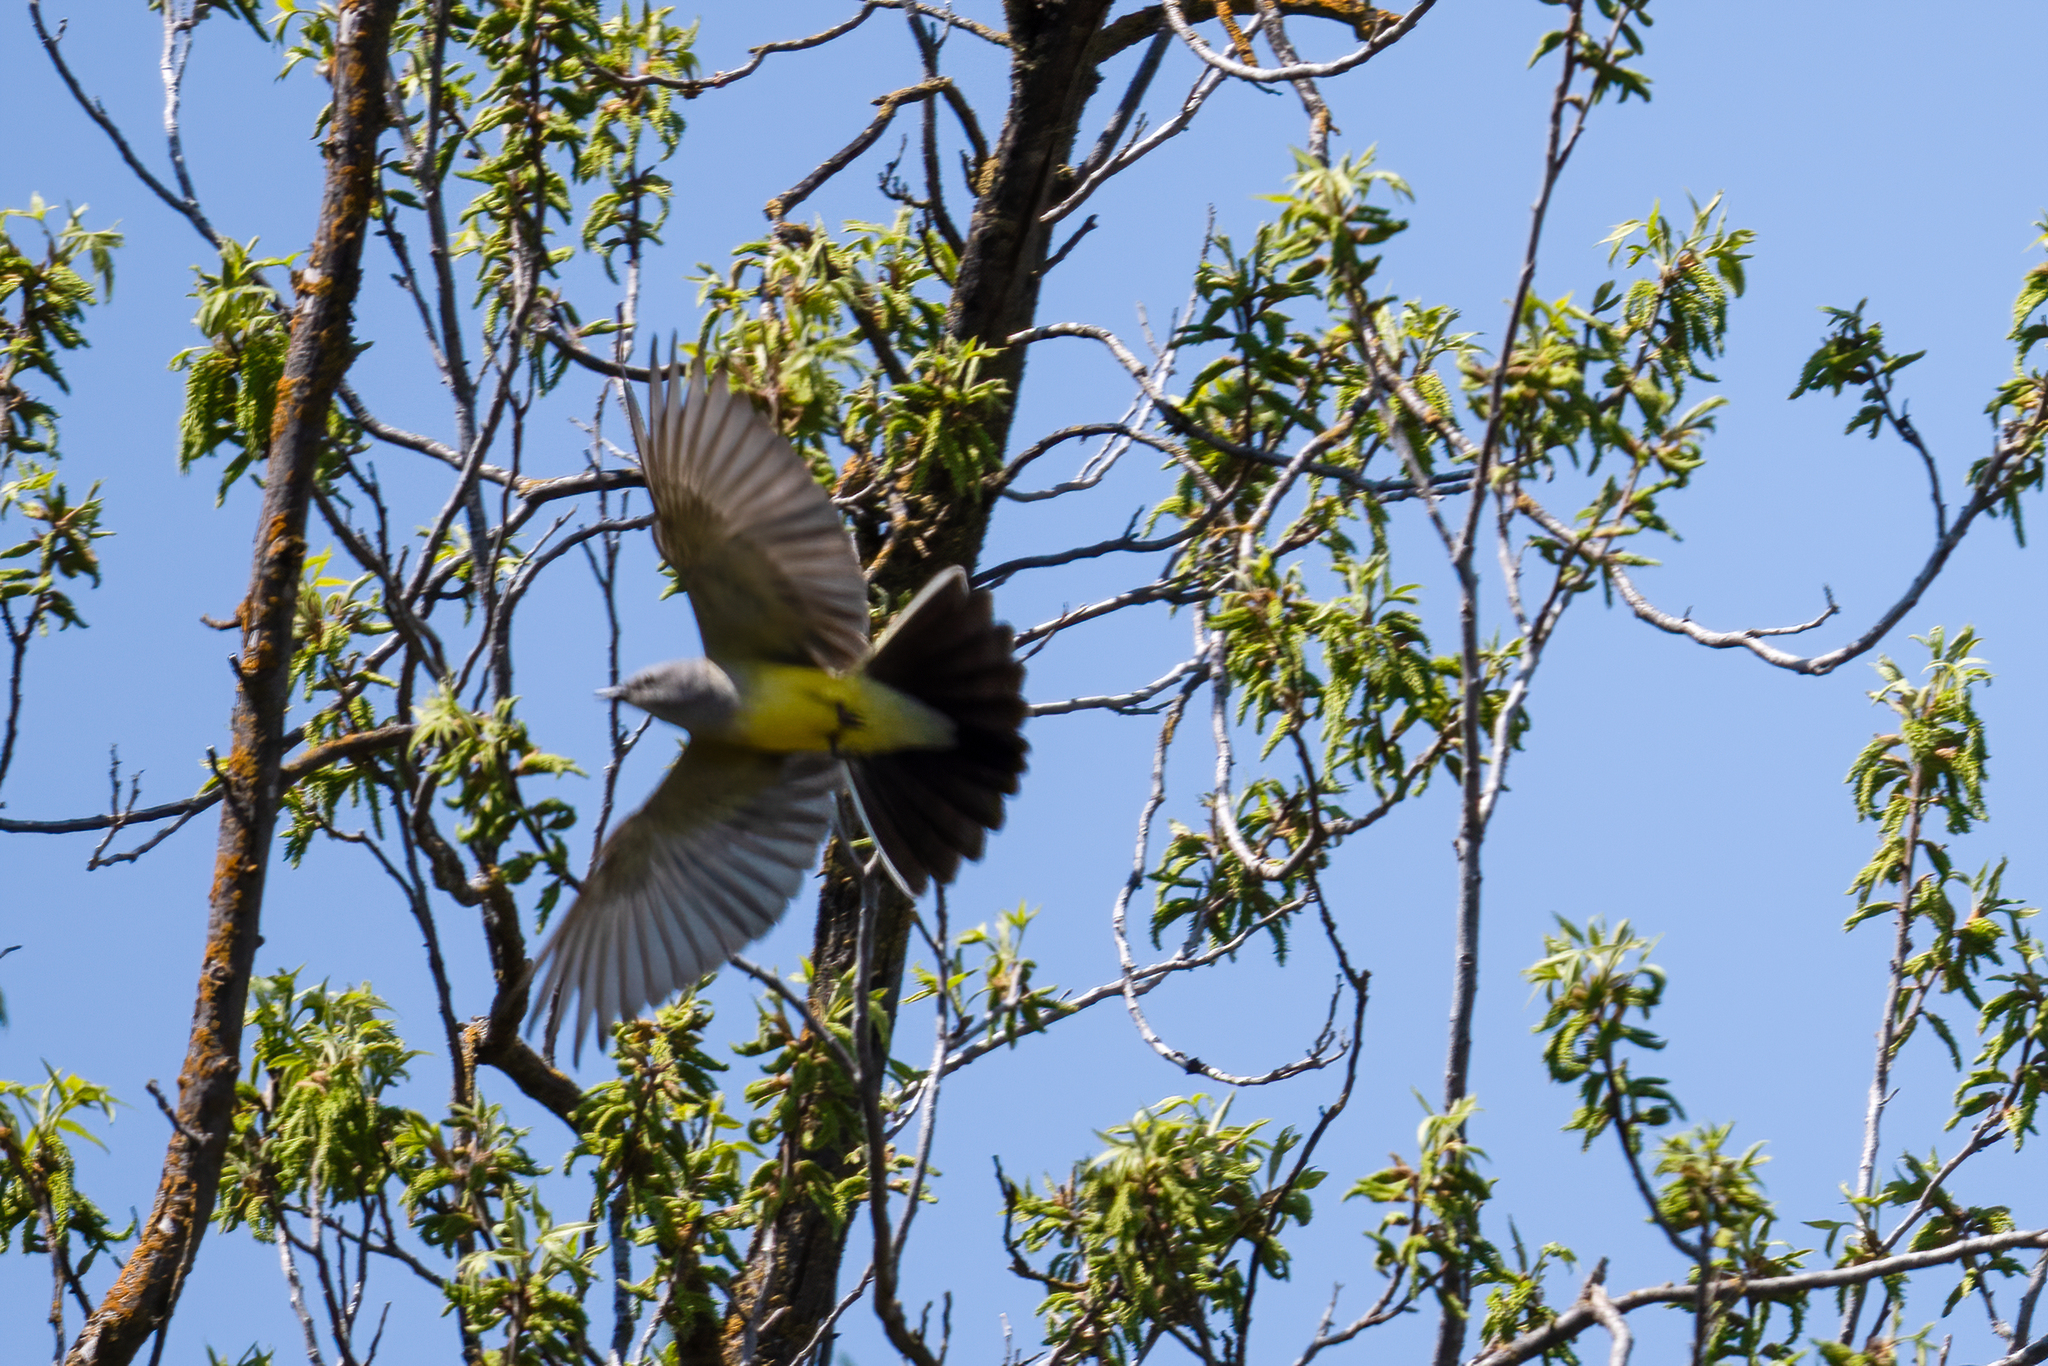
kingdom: Animalia
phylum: Chordata
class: Aves
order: Passeriformes
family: Tyrannidae
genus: Tyrannus
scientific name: Tyrannus verticalis
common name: Western kingbird
